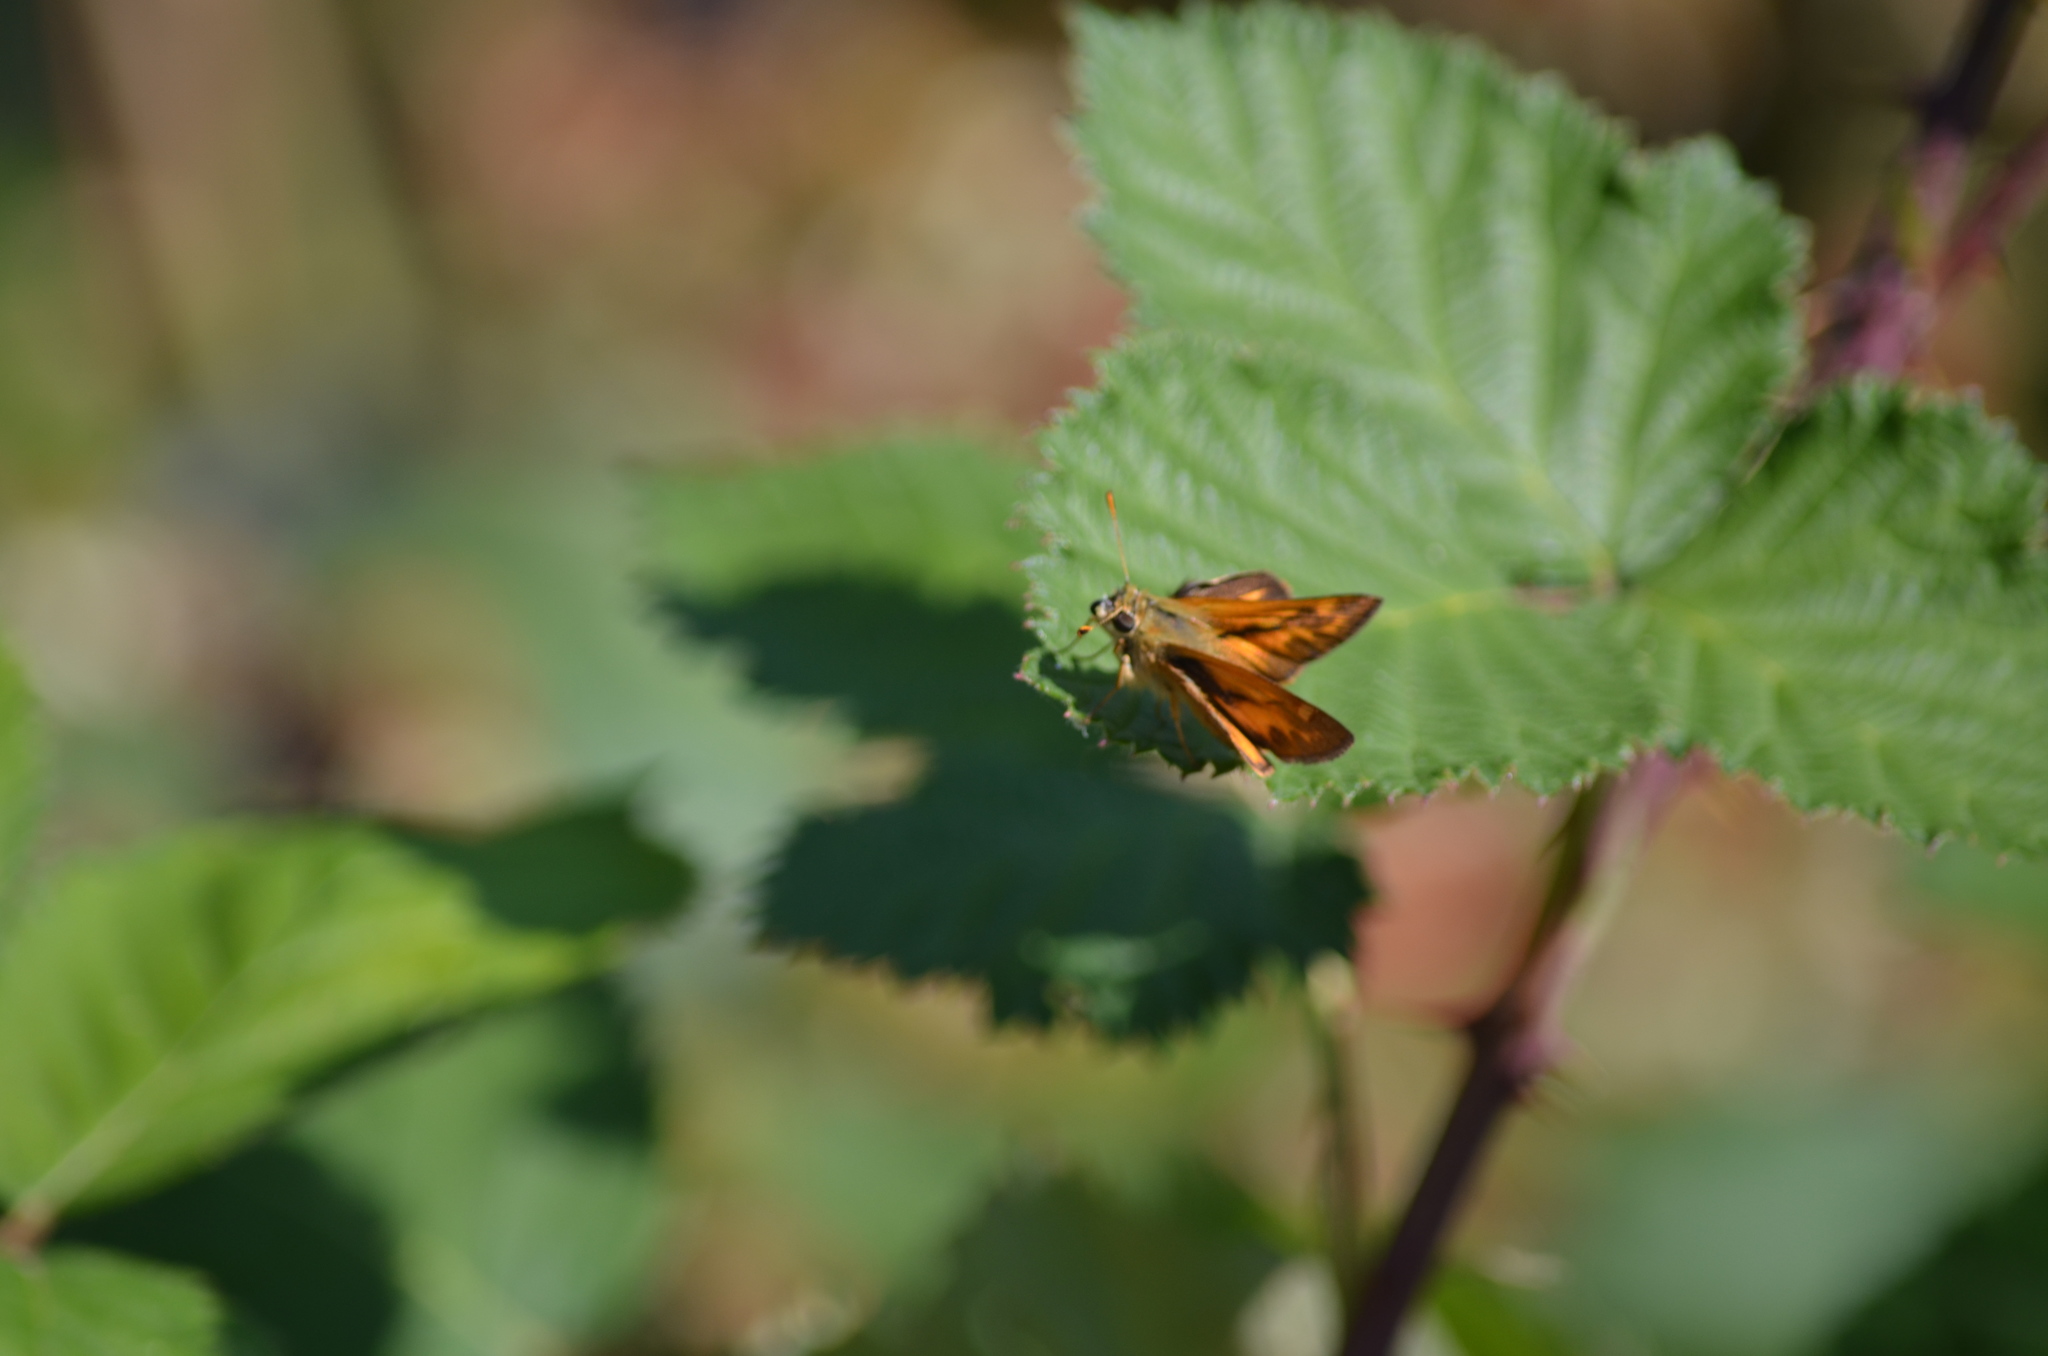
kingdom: Animalia
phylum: Arthropoda
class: Insecta
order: Lepidoptera
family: Hesperiidae
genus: Ochlodes
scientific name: Ochlodes sylvanoides
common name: Woodland skipper
